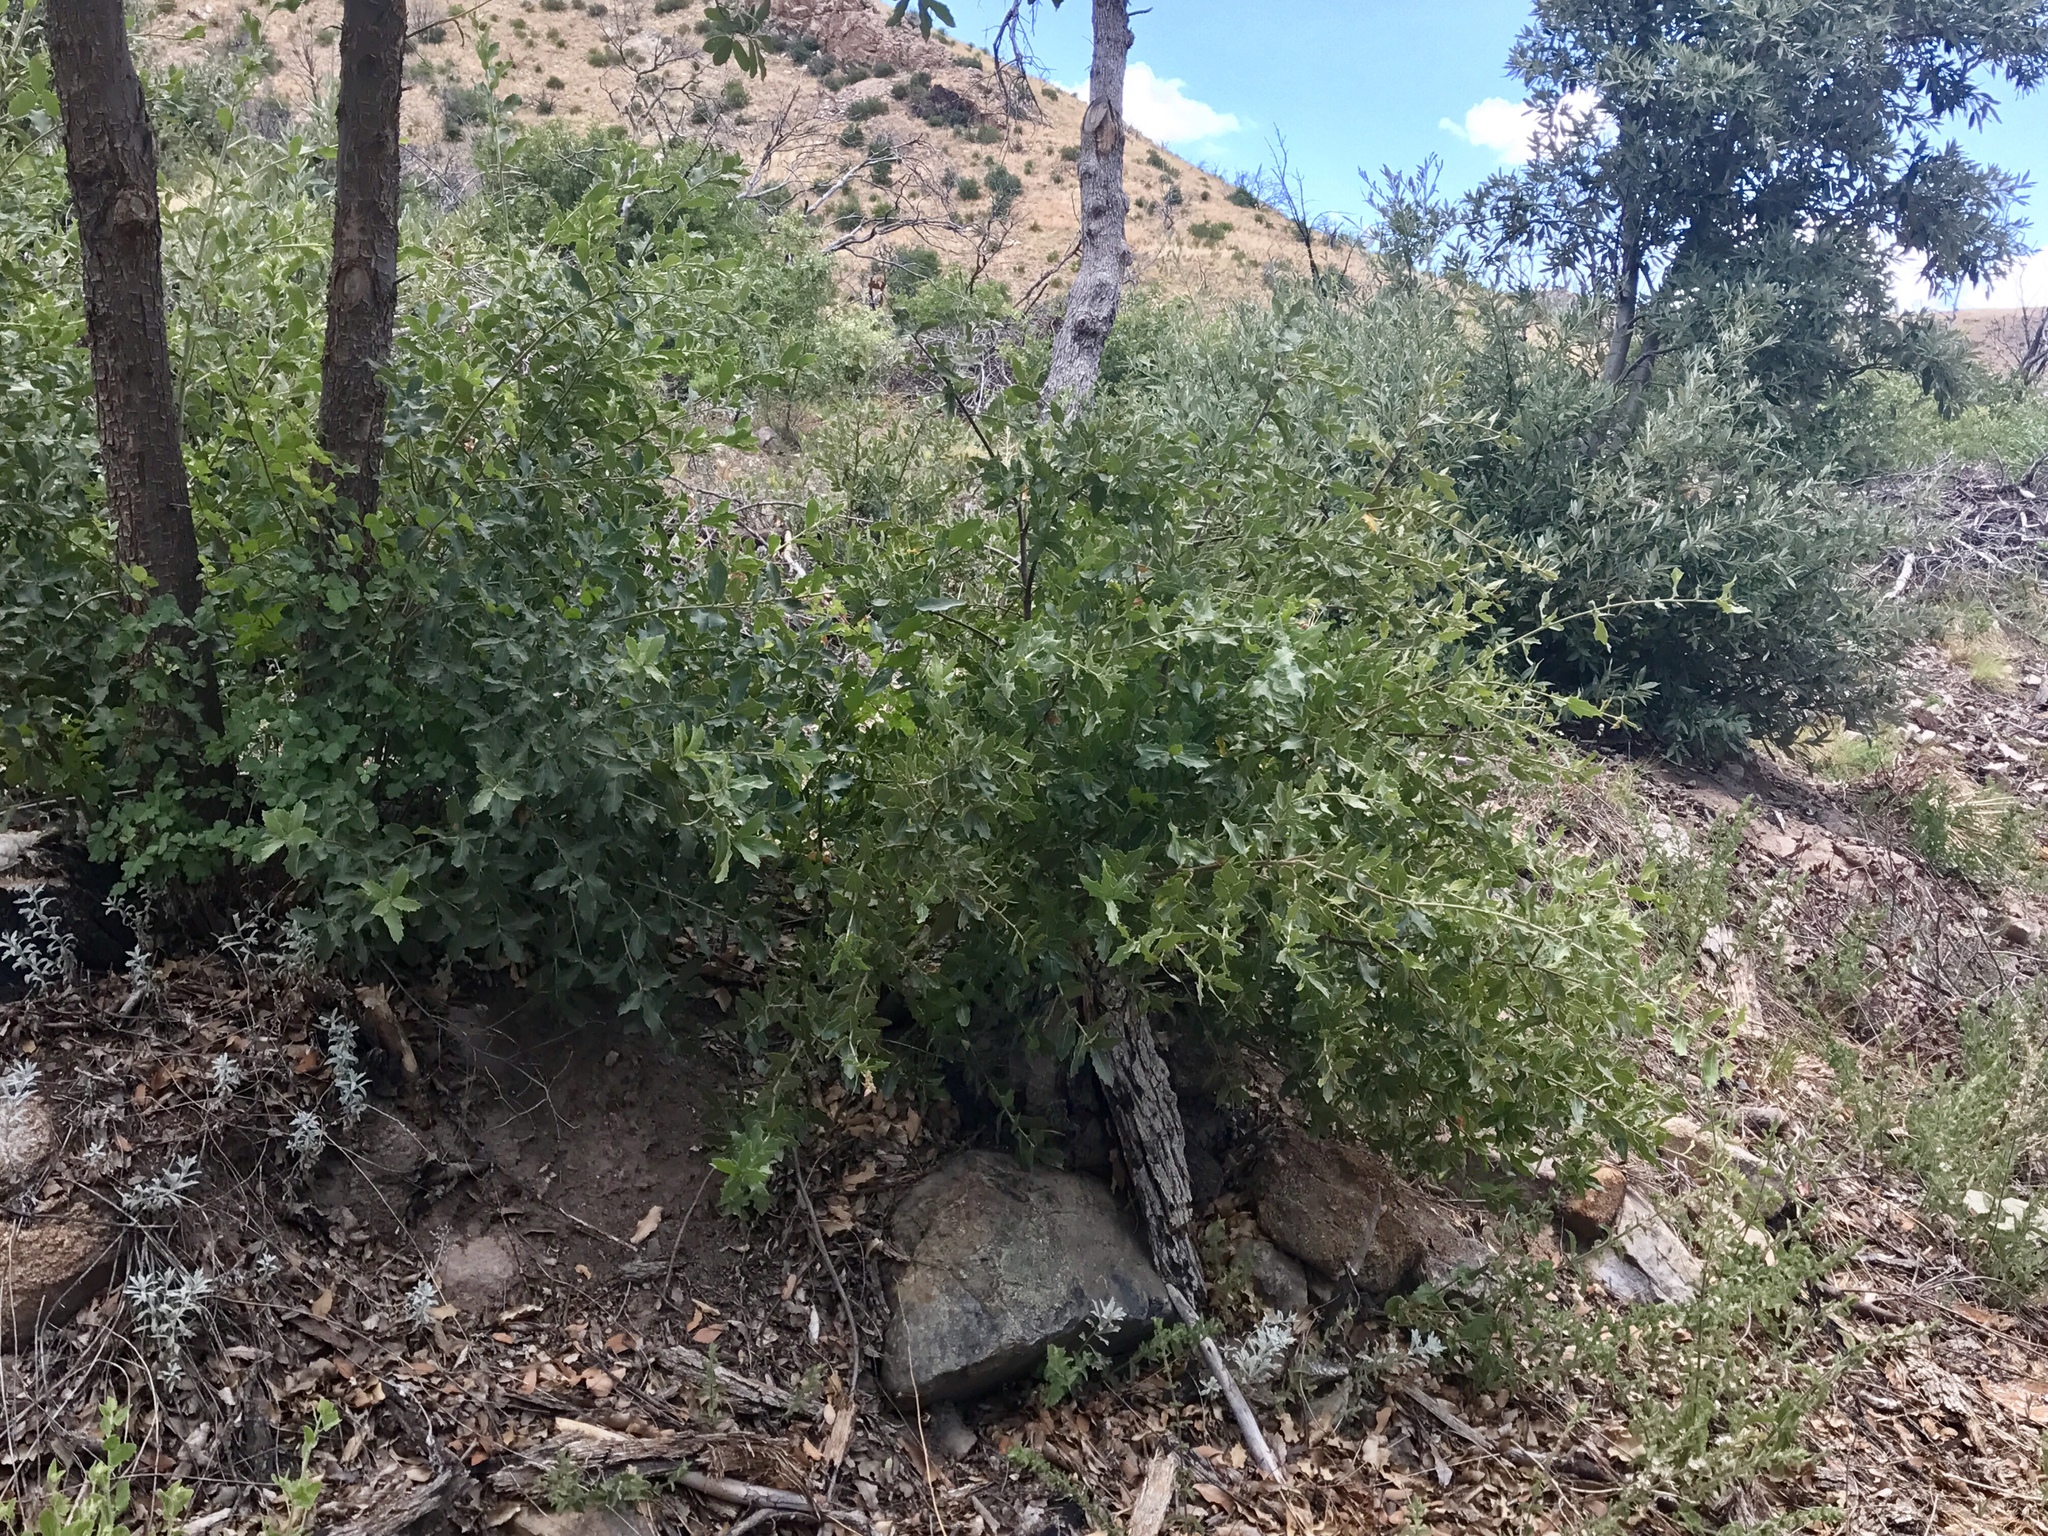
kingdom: Plantae
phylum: Tracheophyta
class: Magnoliopsida
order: Fagales
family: Fagaceae
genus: Quercus
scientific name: Quercus emoryi
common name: Emory oak
